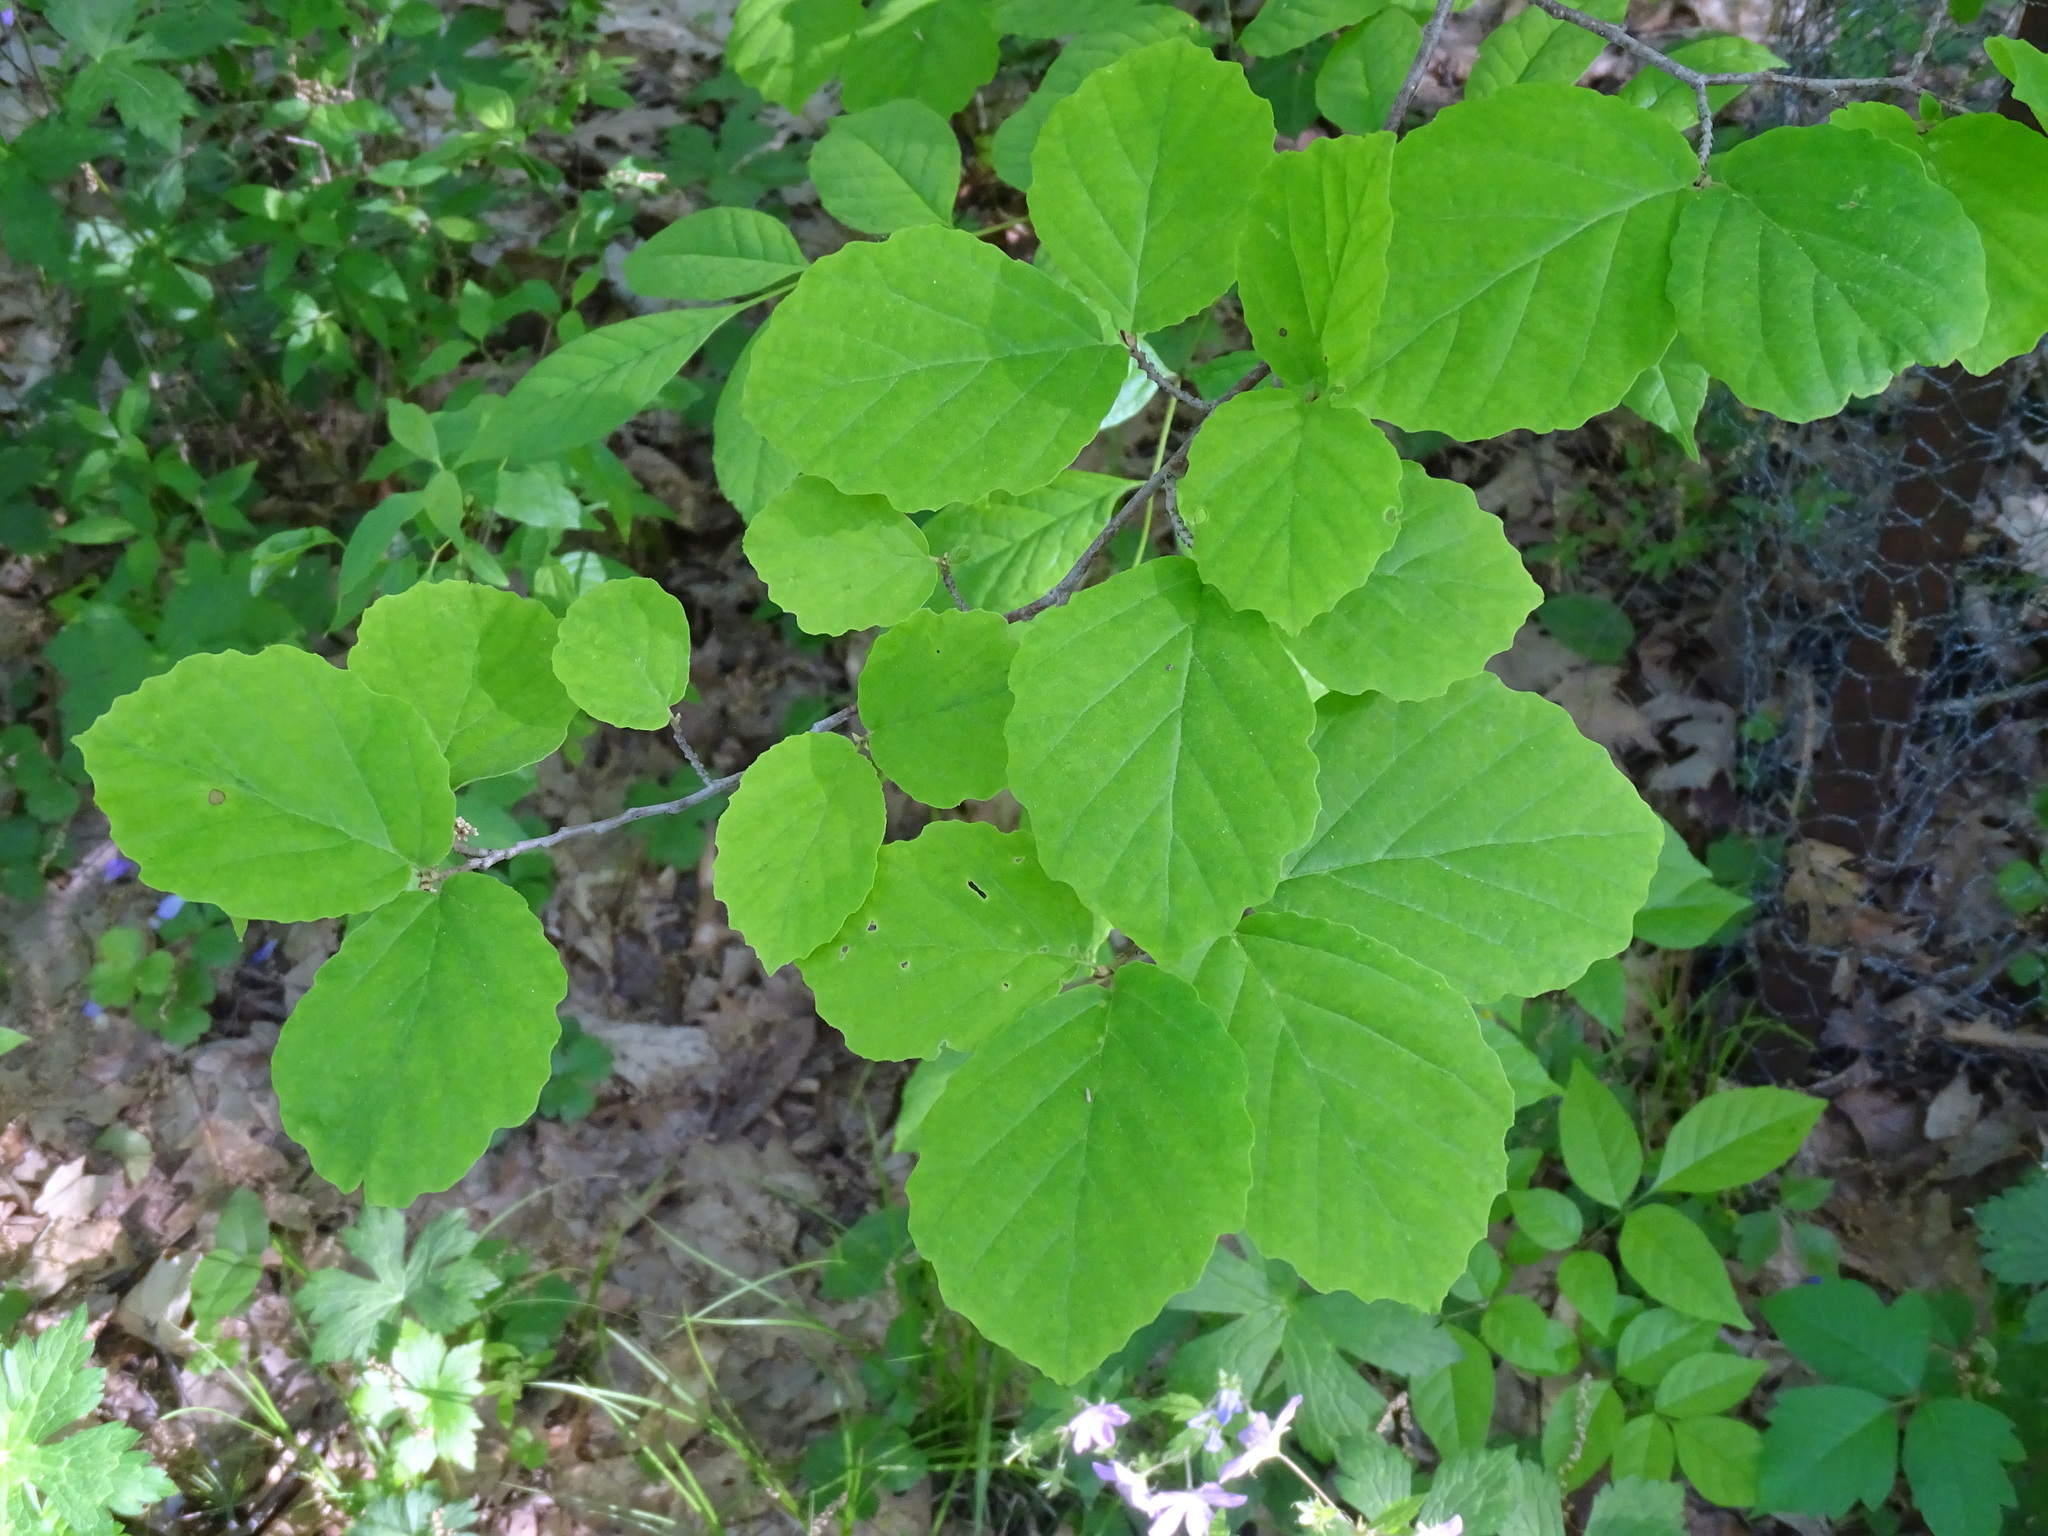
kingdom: Plantae
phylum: Tracheophyta
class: Magnoliopsida
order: Saxifragales
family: Hamamelidaceae
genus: Hamamelis
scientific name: Hamamelis virginiana
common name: Witch-hazel
